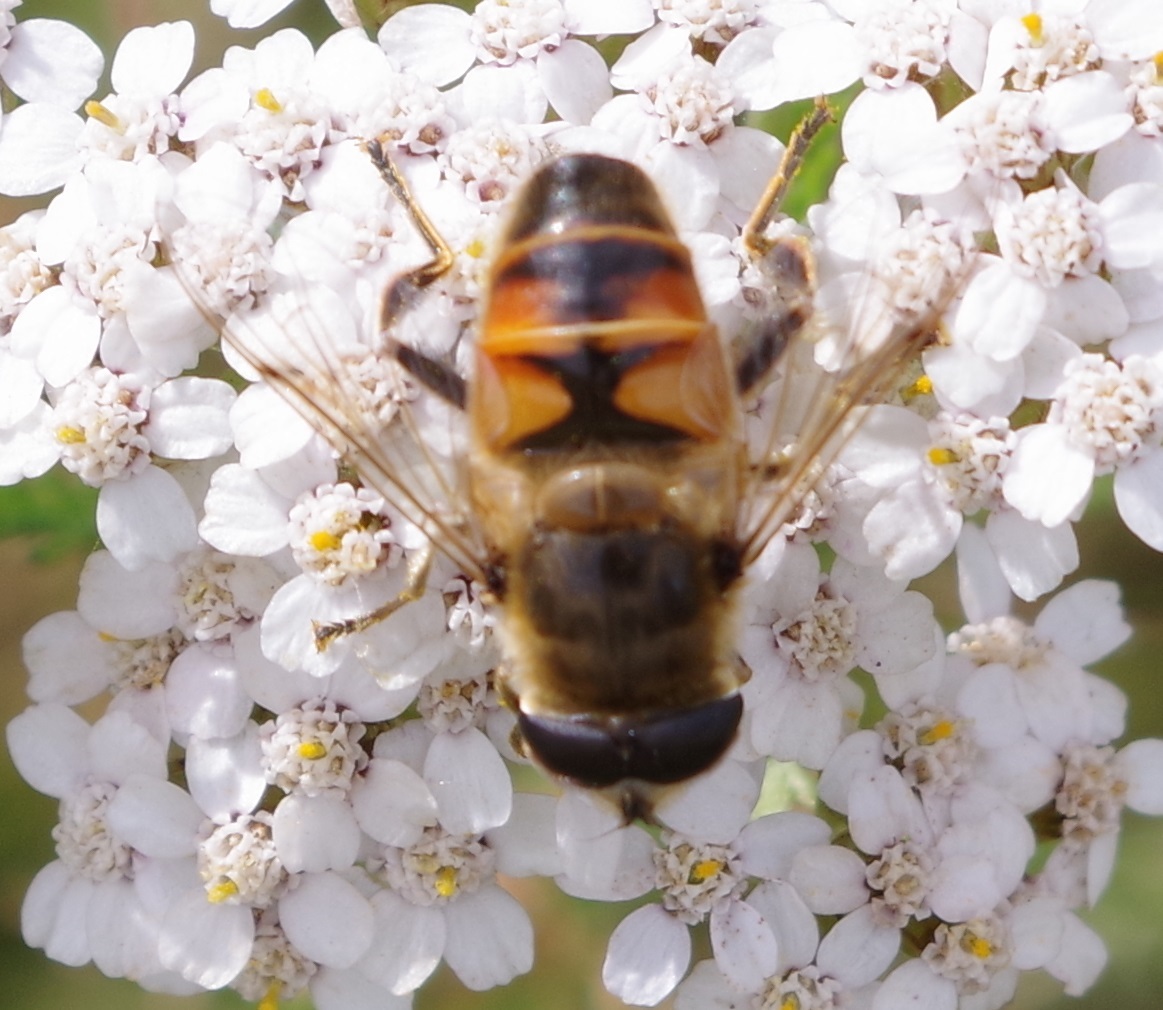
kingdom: Animalia
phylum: Arthropoda
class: Insecta
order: Diptera
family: Syrphidae
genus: Eristalis
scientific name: Eristalis tenax
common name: Drone fly
